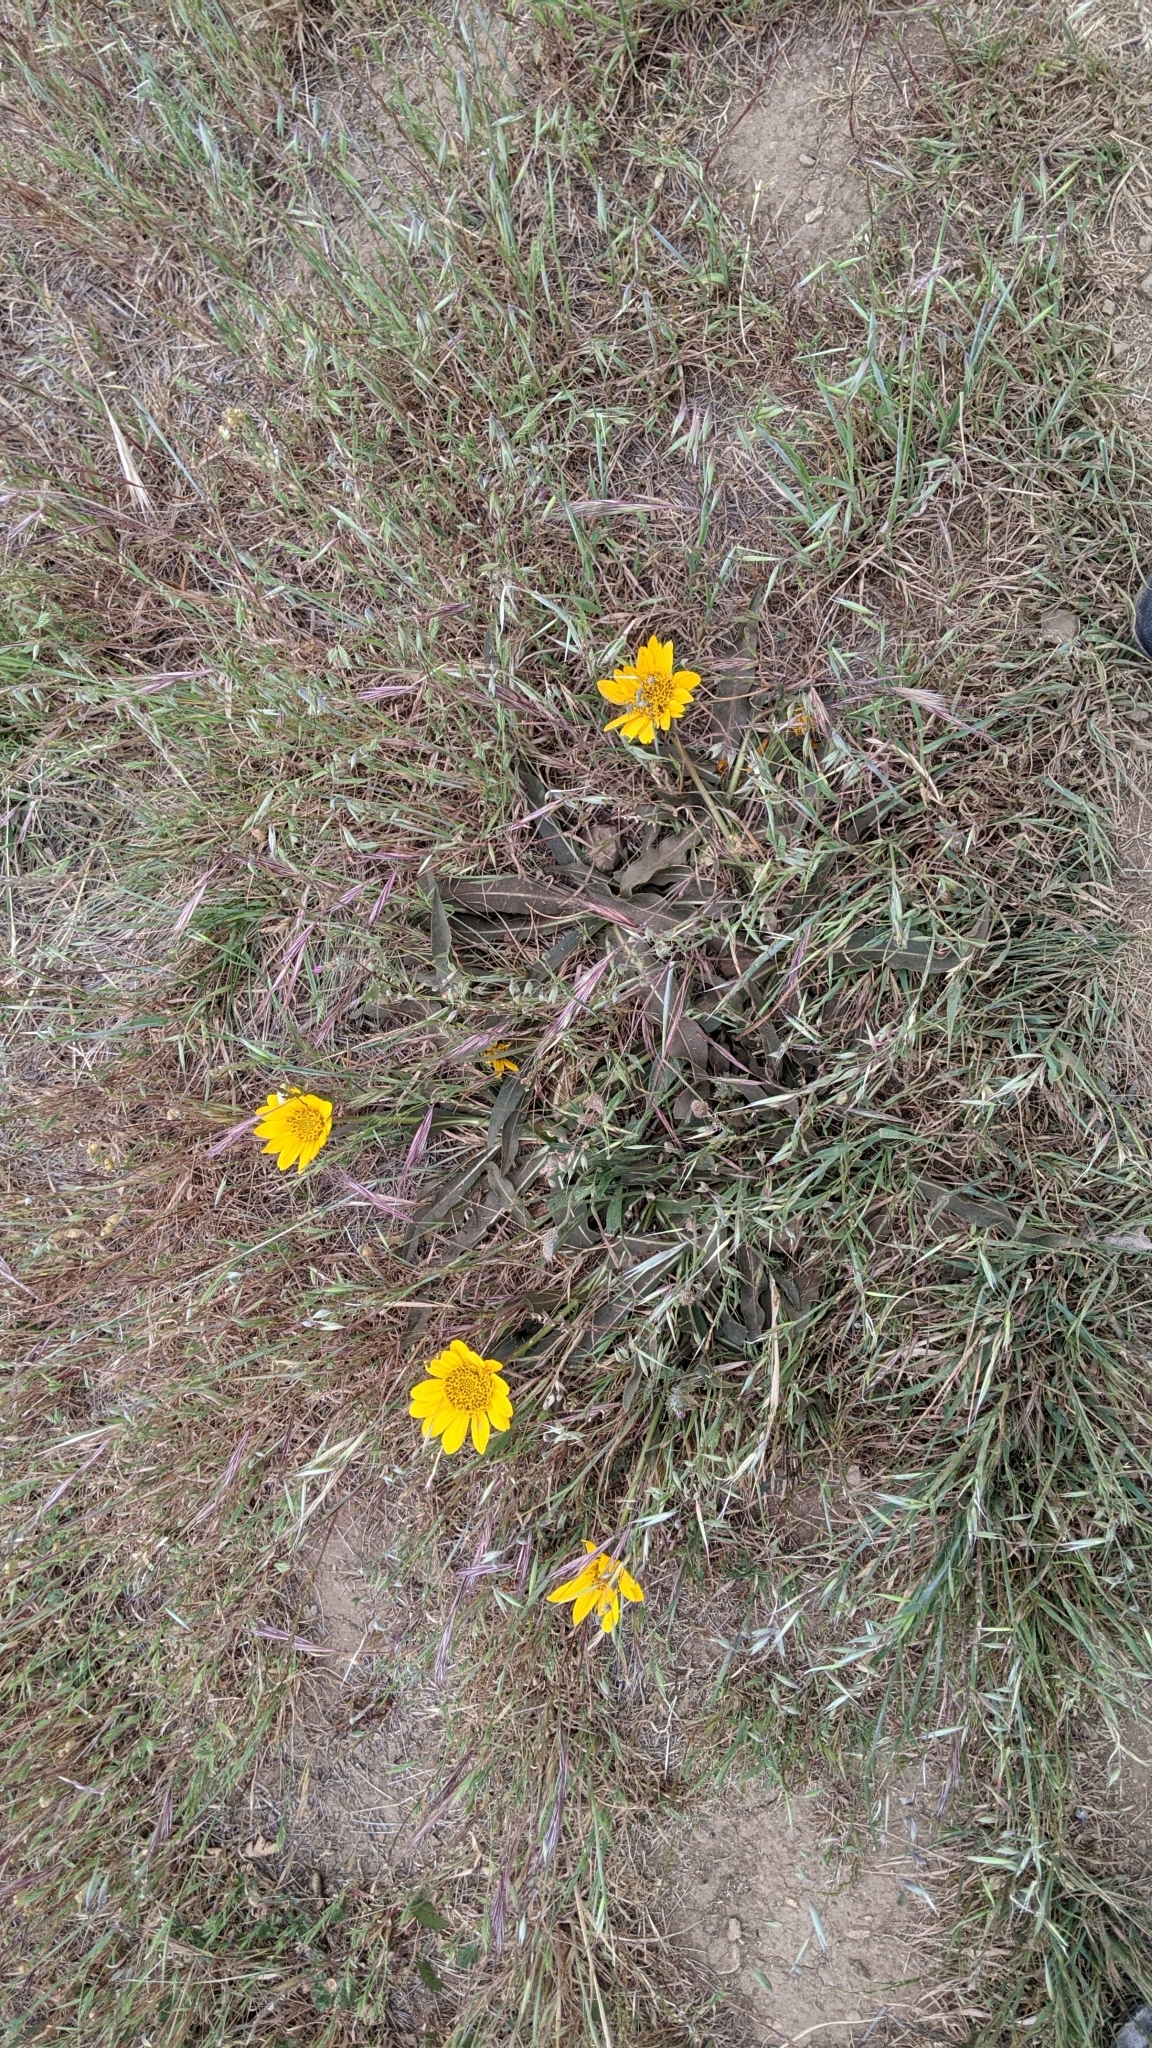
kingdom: Plantae
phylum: Tracheophyta
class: Magnoliopsida
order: Asterales
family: Asteraceae
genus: Wyethia
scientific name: Wyethia angustifolia
